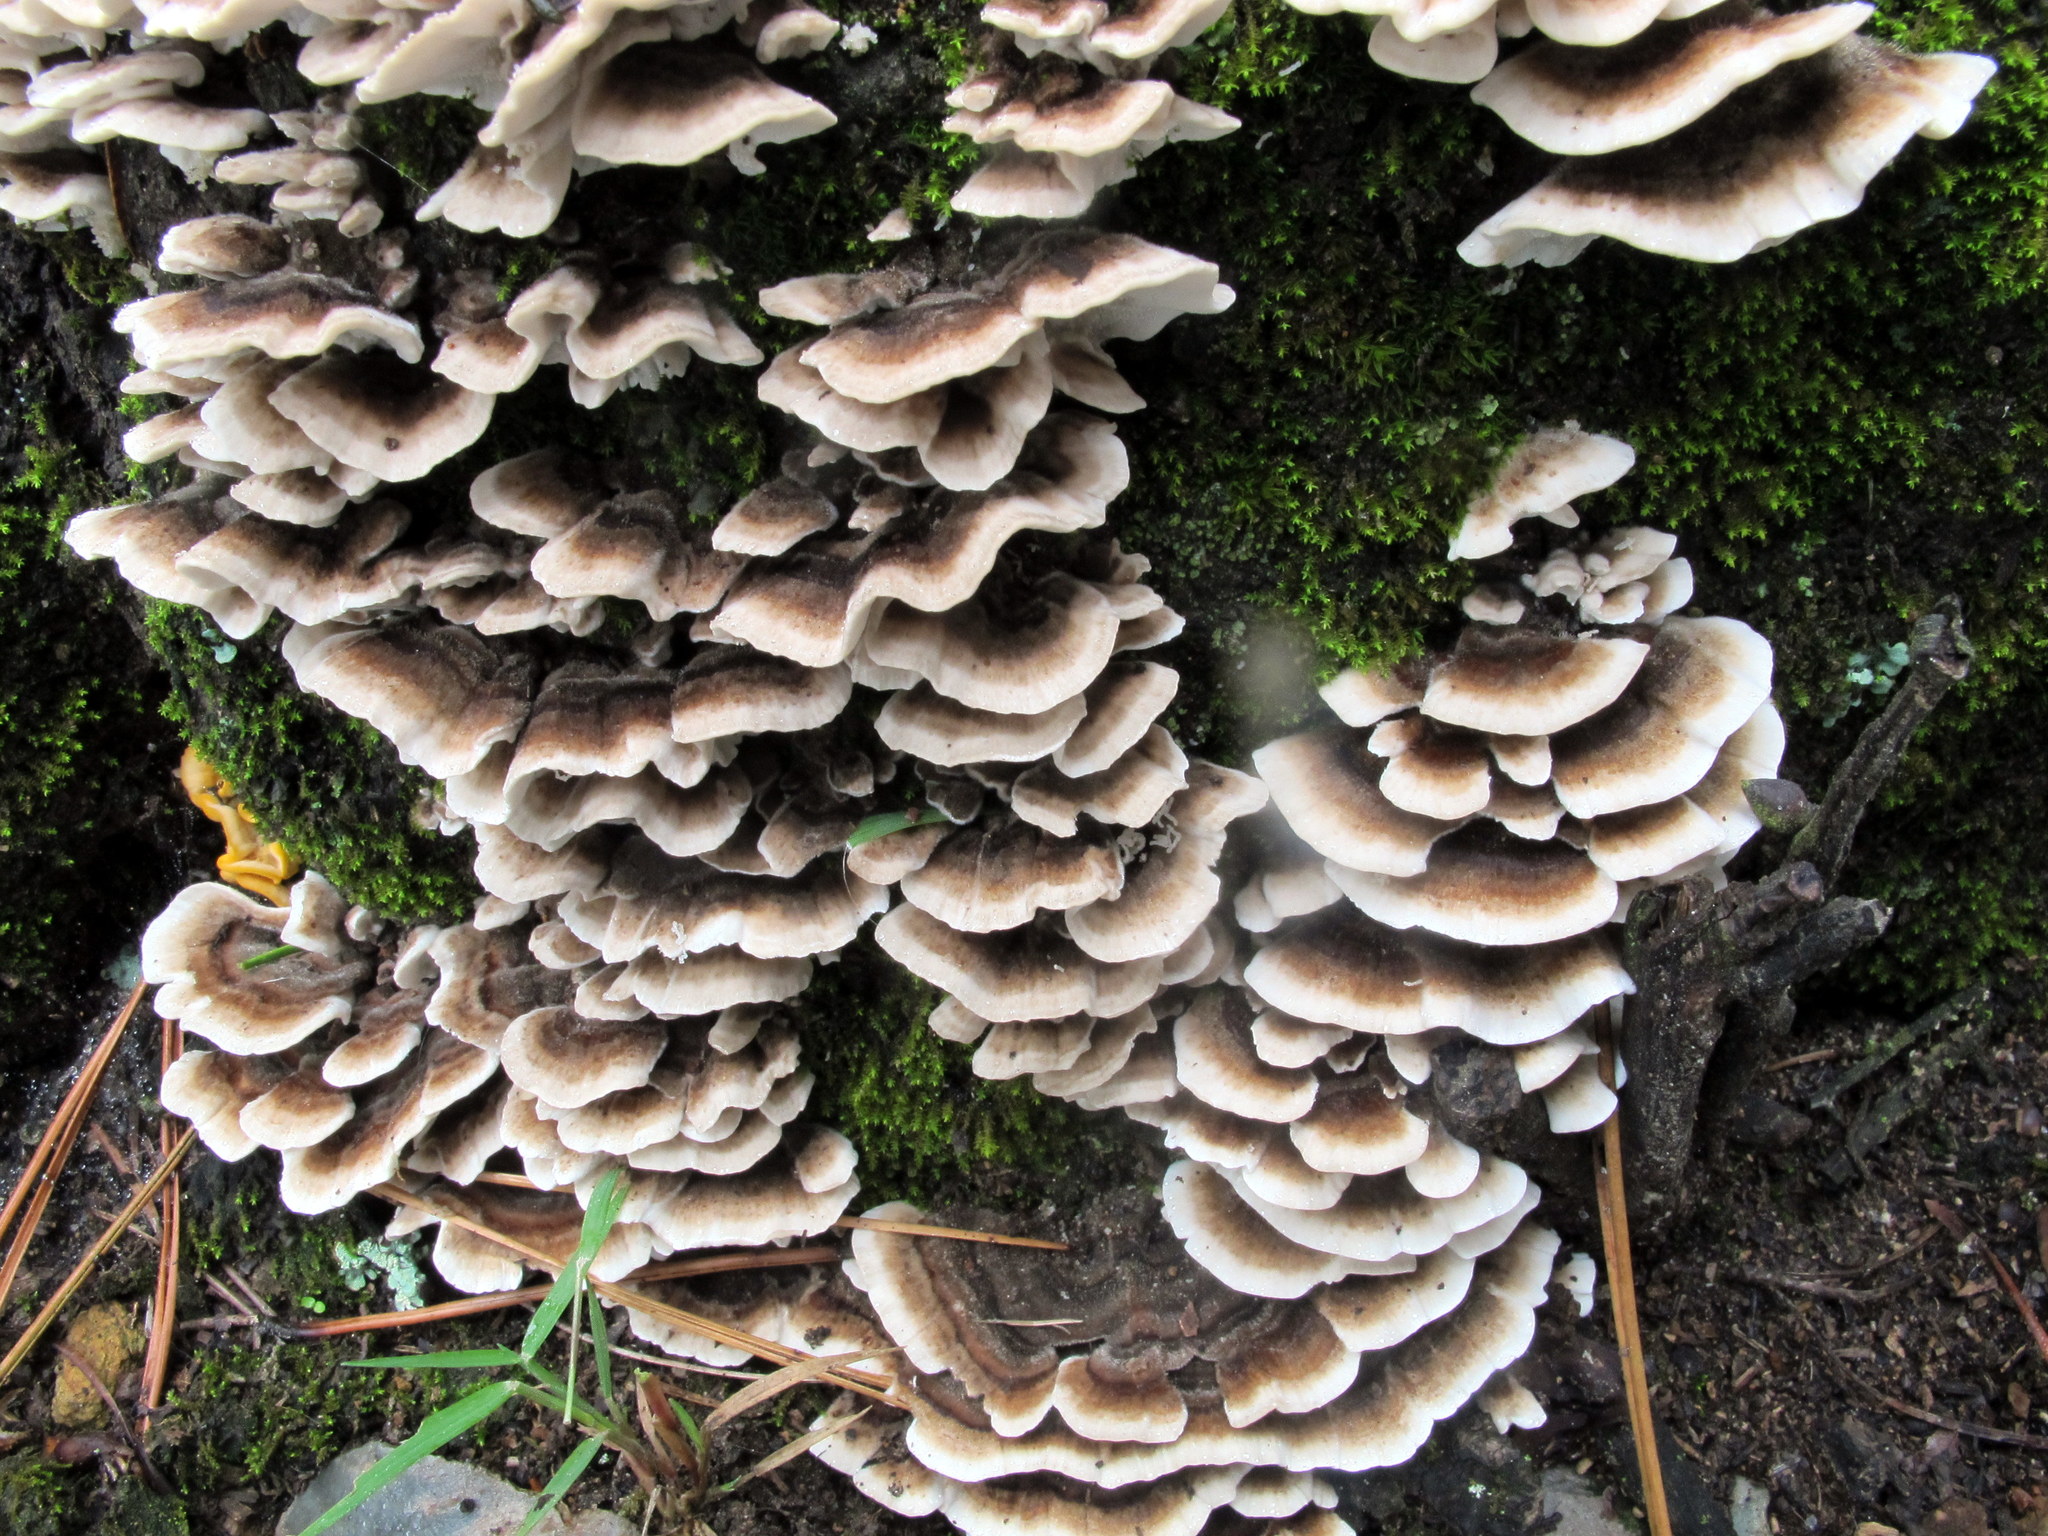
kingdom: Fungi
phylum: Basidiomycota
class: Agaricomycetes
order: Polyporales
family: Polyporaceae
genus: Trametes
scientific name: Trametes versicolor
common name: Turkeytail
